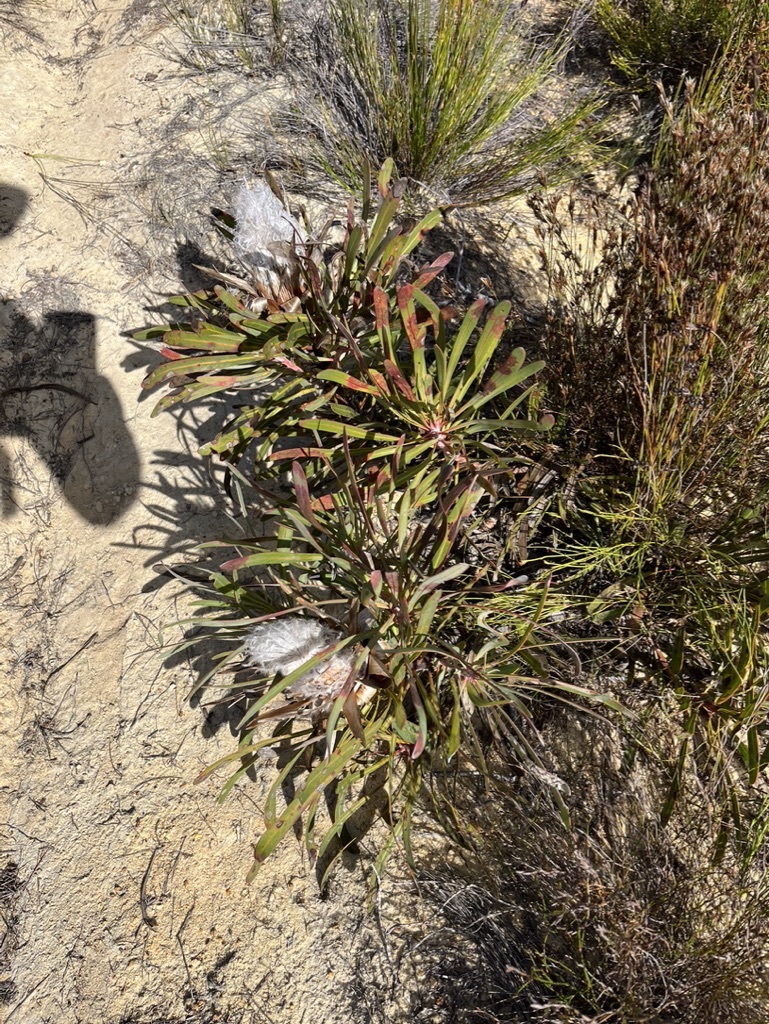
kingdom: Plantae
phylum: Tracheophyta
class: Magnoliopsida
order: Proteales
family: Proteaceae
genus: Protea
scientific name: Protea longifolia
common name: Long-leaf sugarbush
